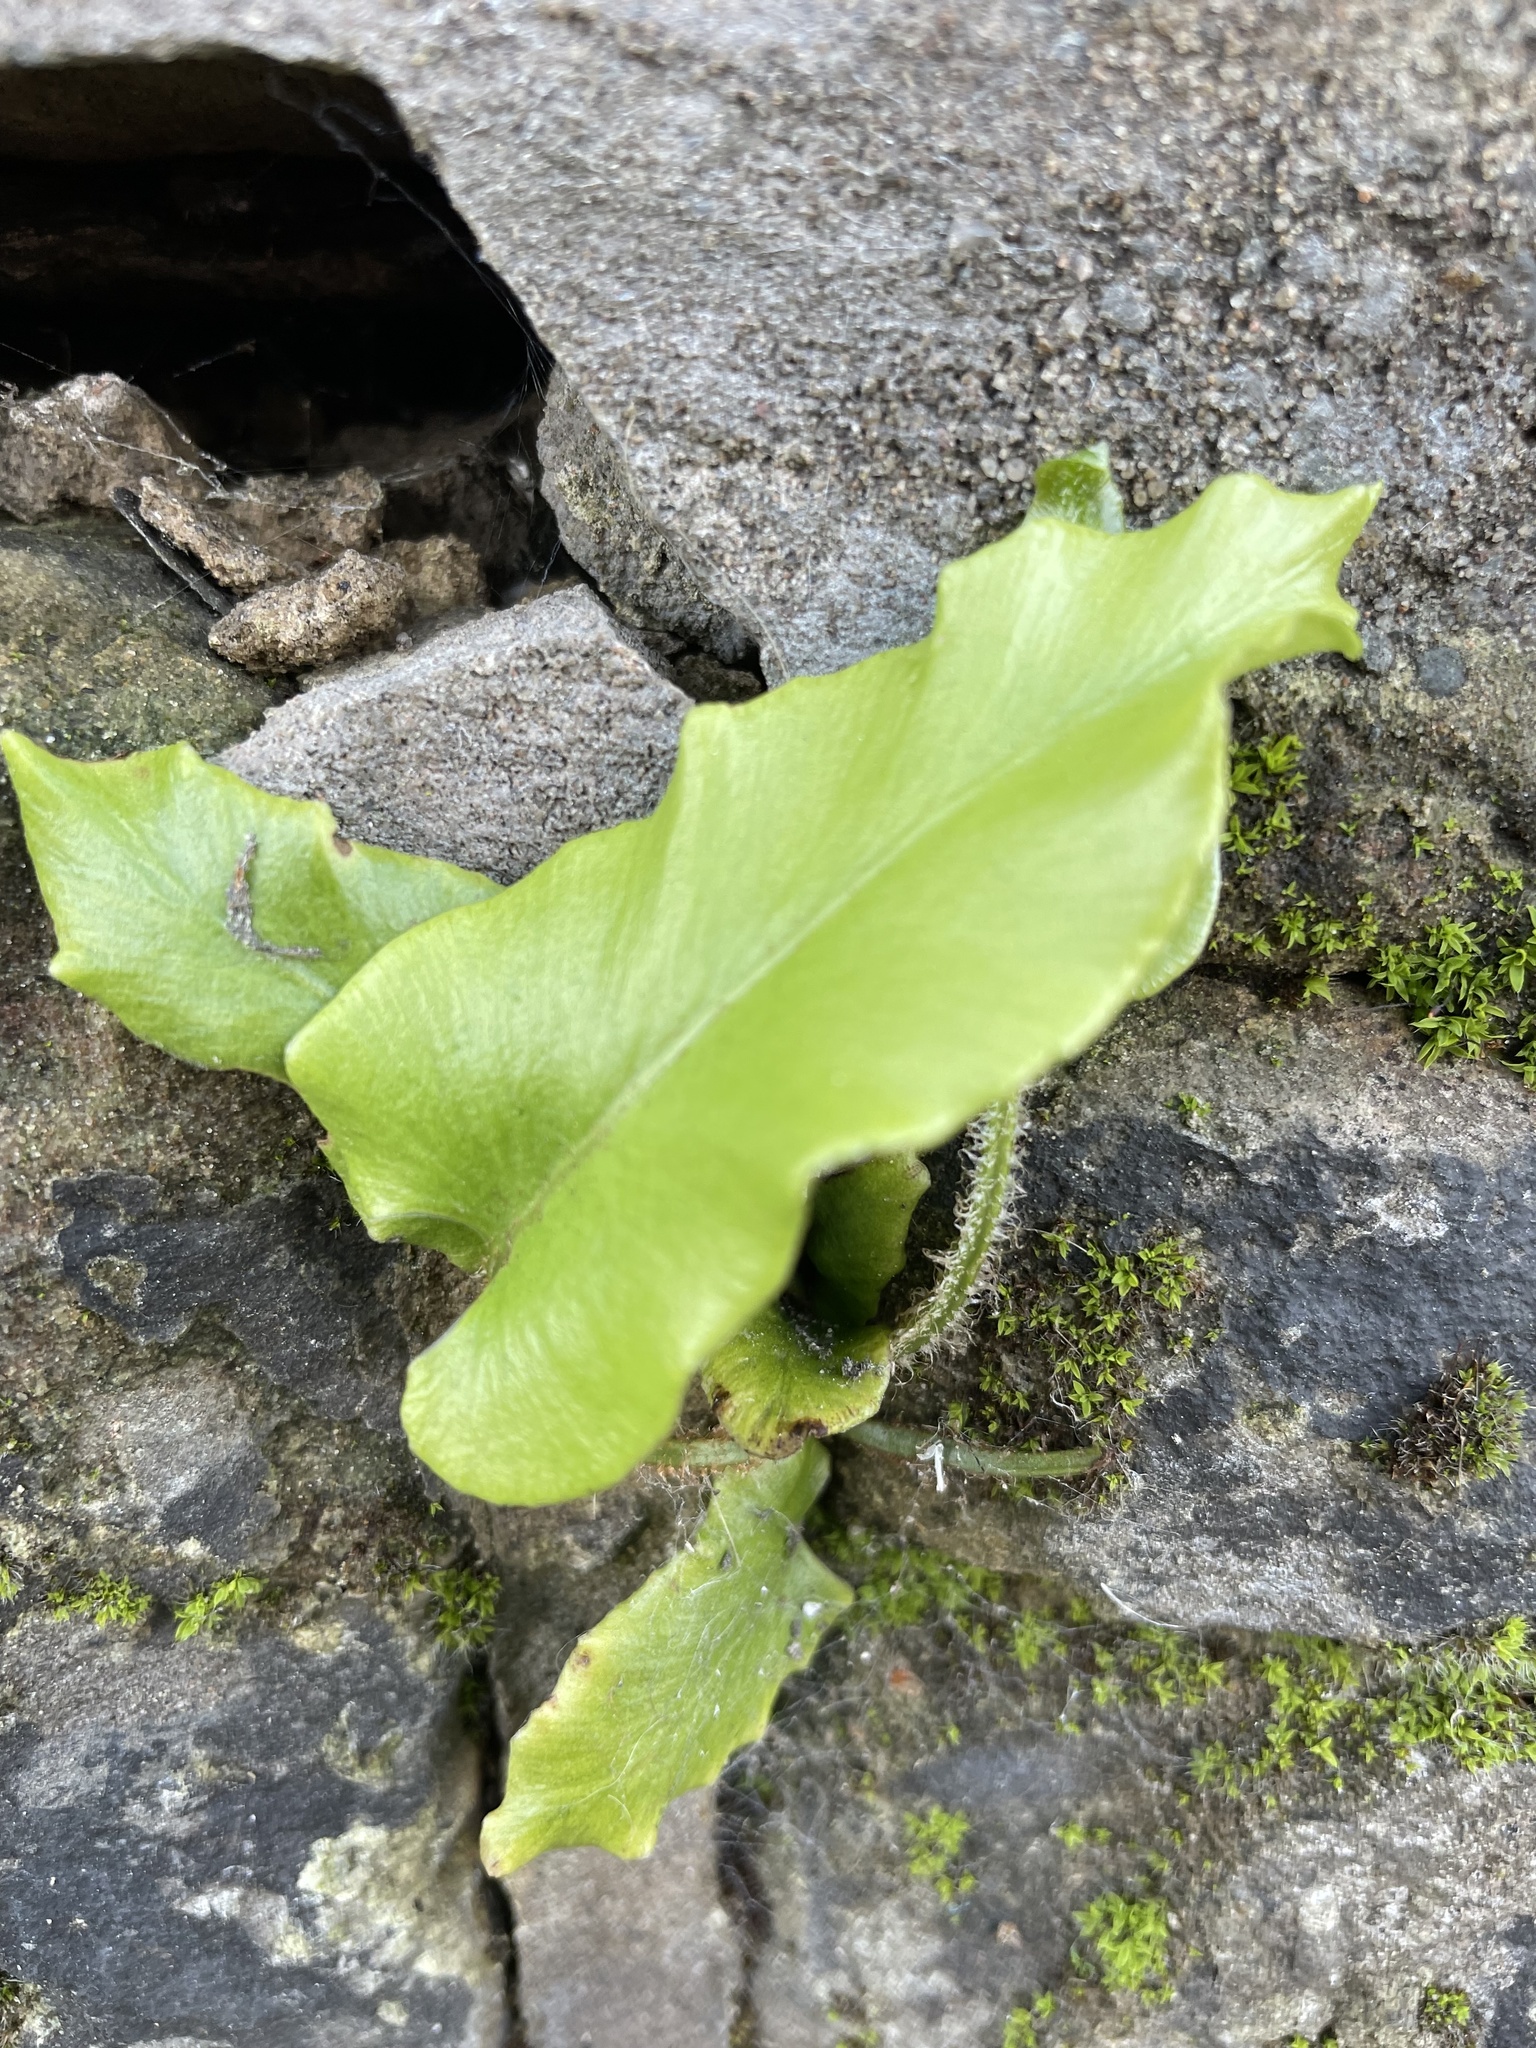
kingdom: Plantae
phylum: Tracheophyta
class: Polypodiopsida
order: Polypodiales
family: Aspleniaceae
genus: Asplenium
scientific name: Asplenium scolopendrium
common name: Hart's-tongue fern
